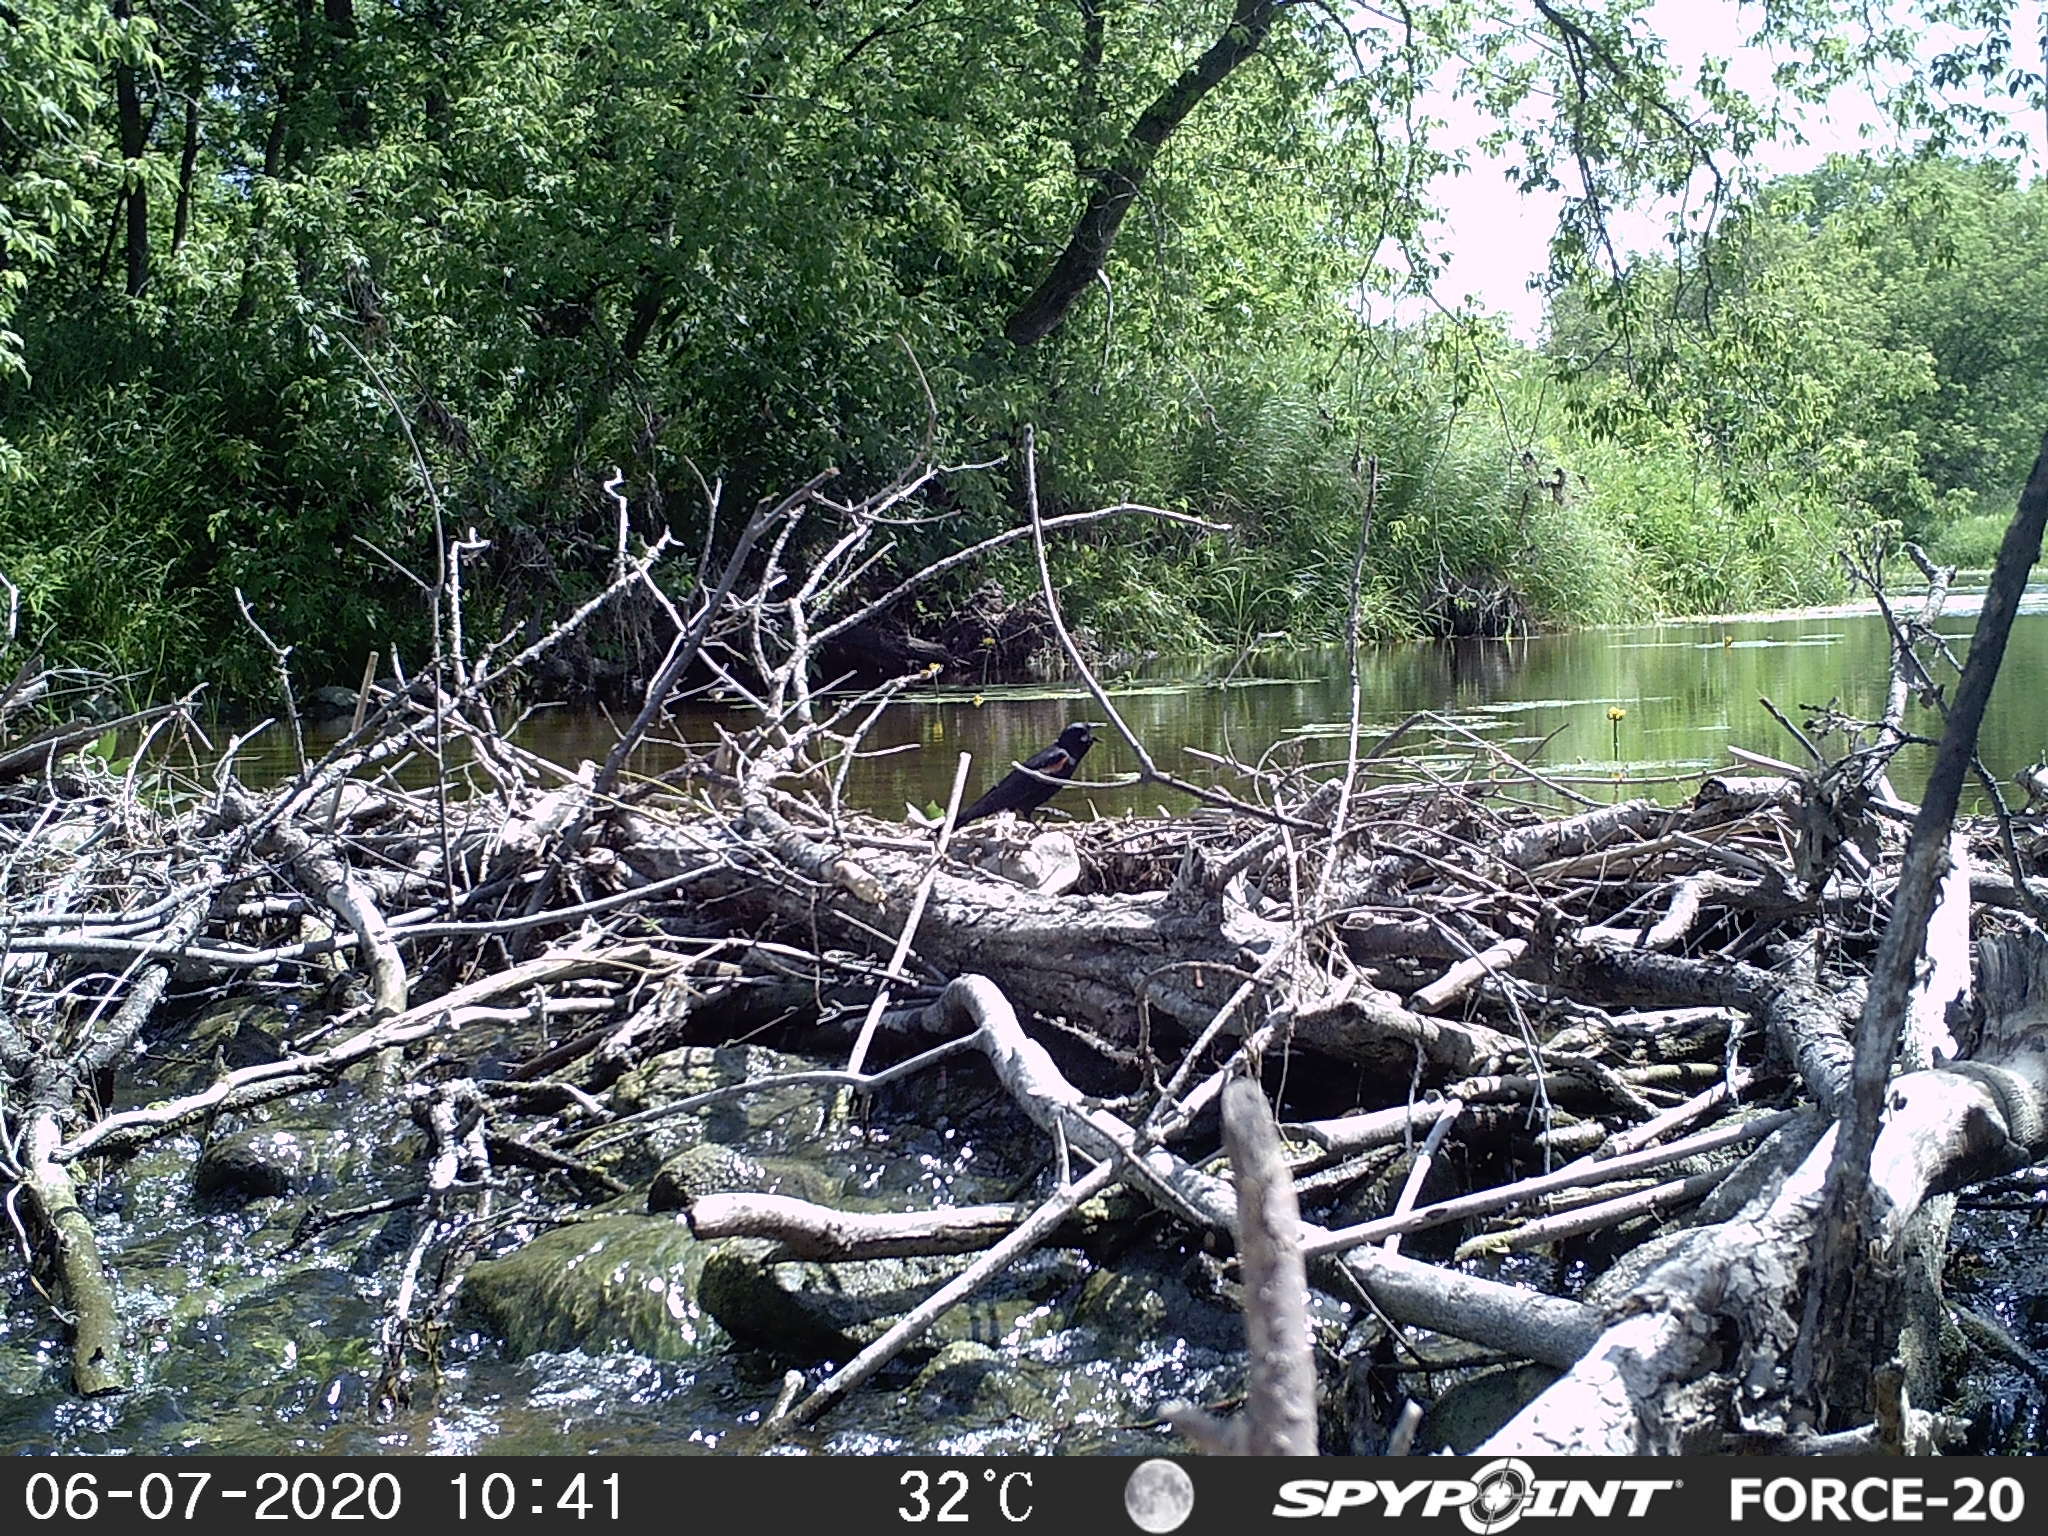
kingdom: Animalia
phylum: Chordata
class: Aves
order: Passeriformes
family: Icteridae
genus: Agelaius
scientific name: Agelaius phoeniceus
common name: Red-winged blackbird
